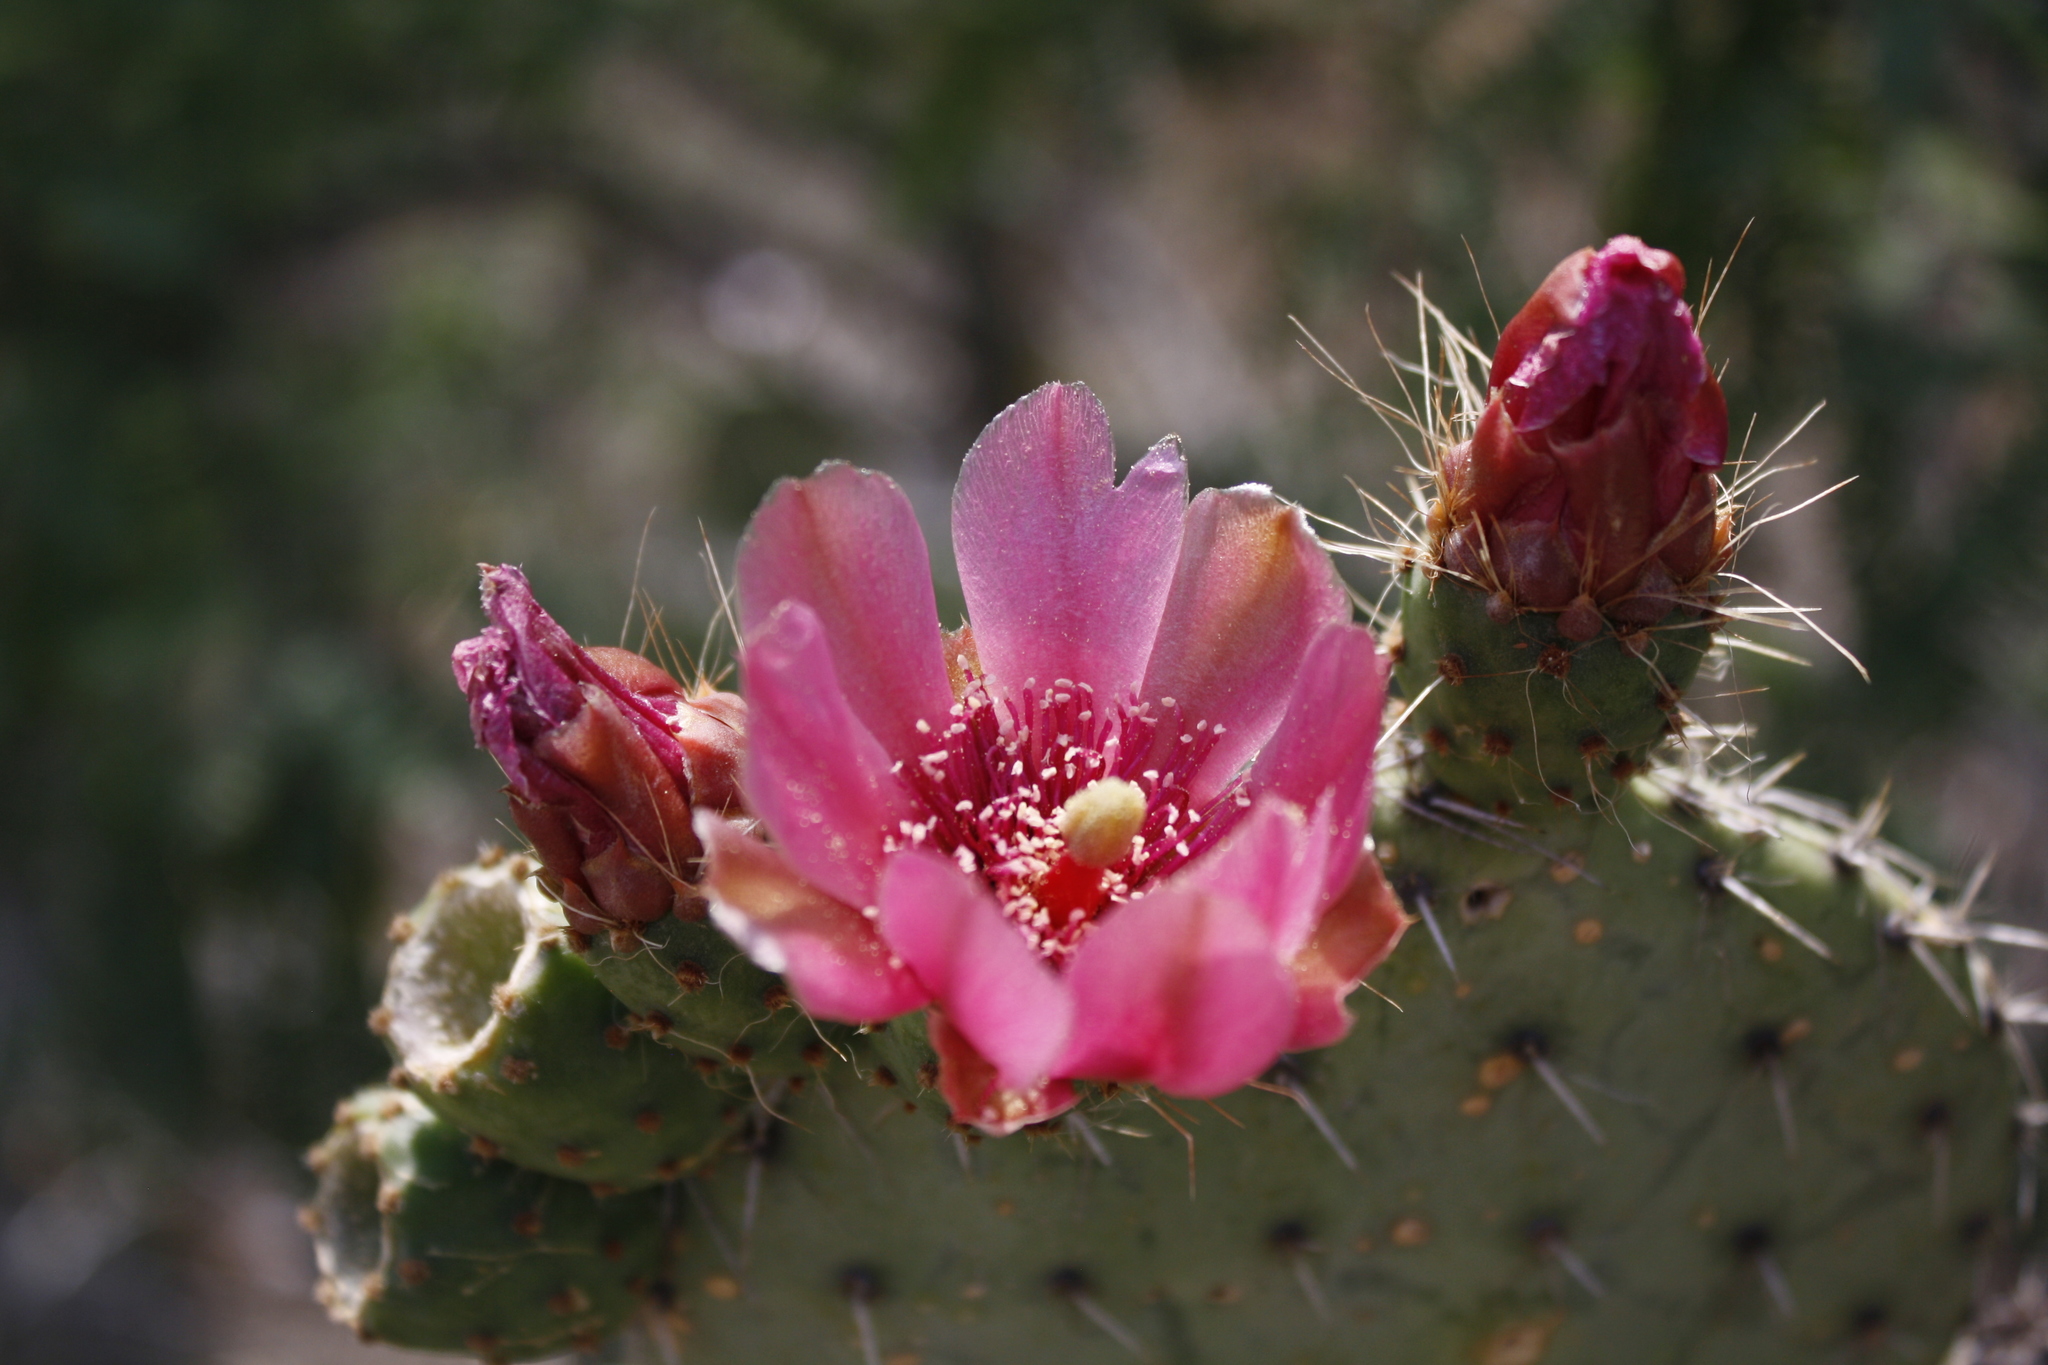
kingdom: Plantae
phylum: Tracheophyta
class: Magnoliopsida
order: Caryophyllales
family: Cactaceae
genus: Opuntia
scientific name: Opuntia pilifera
